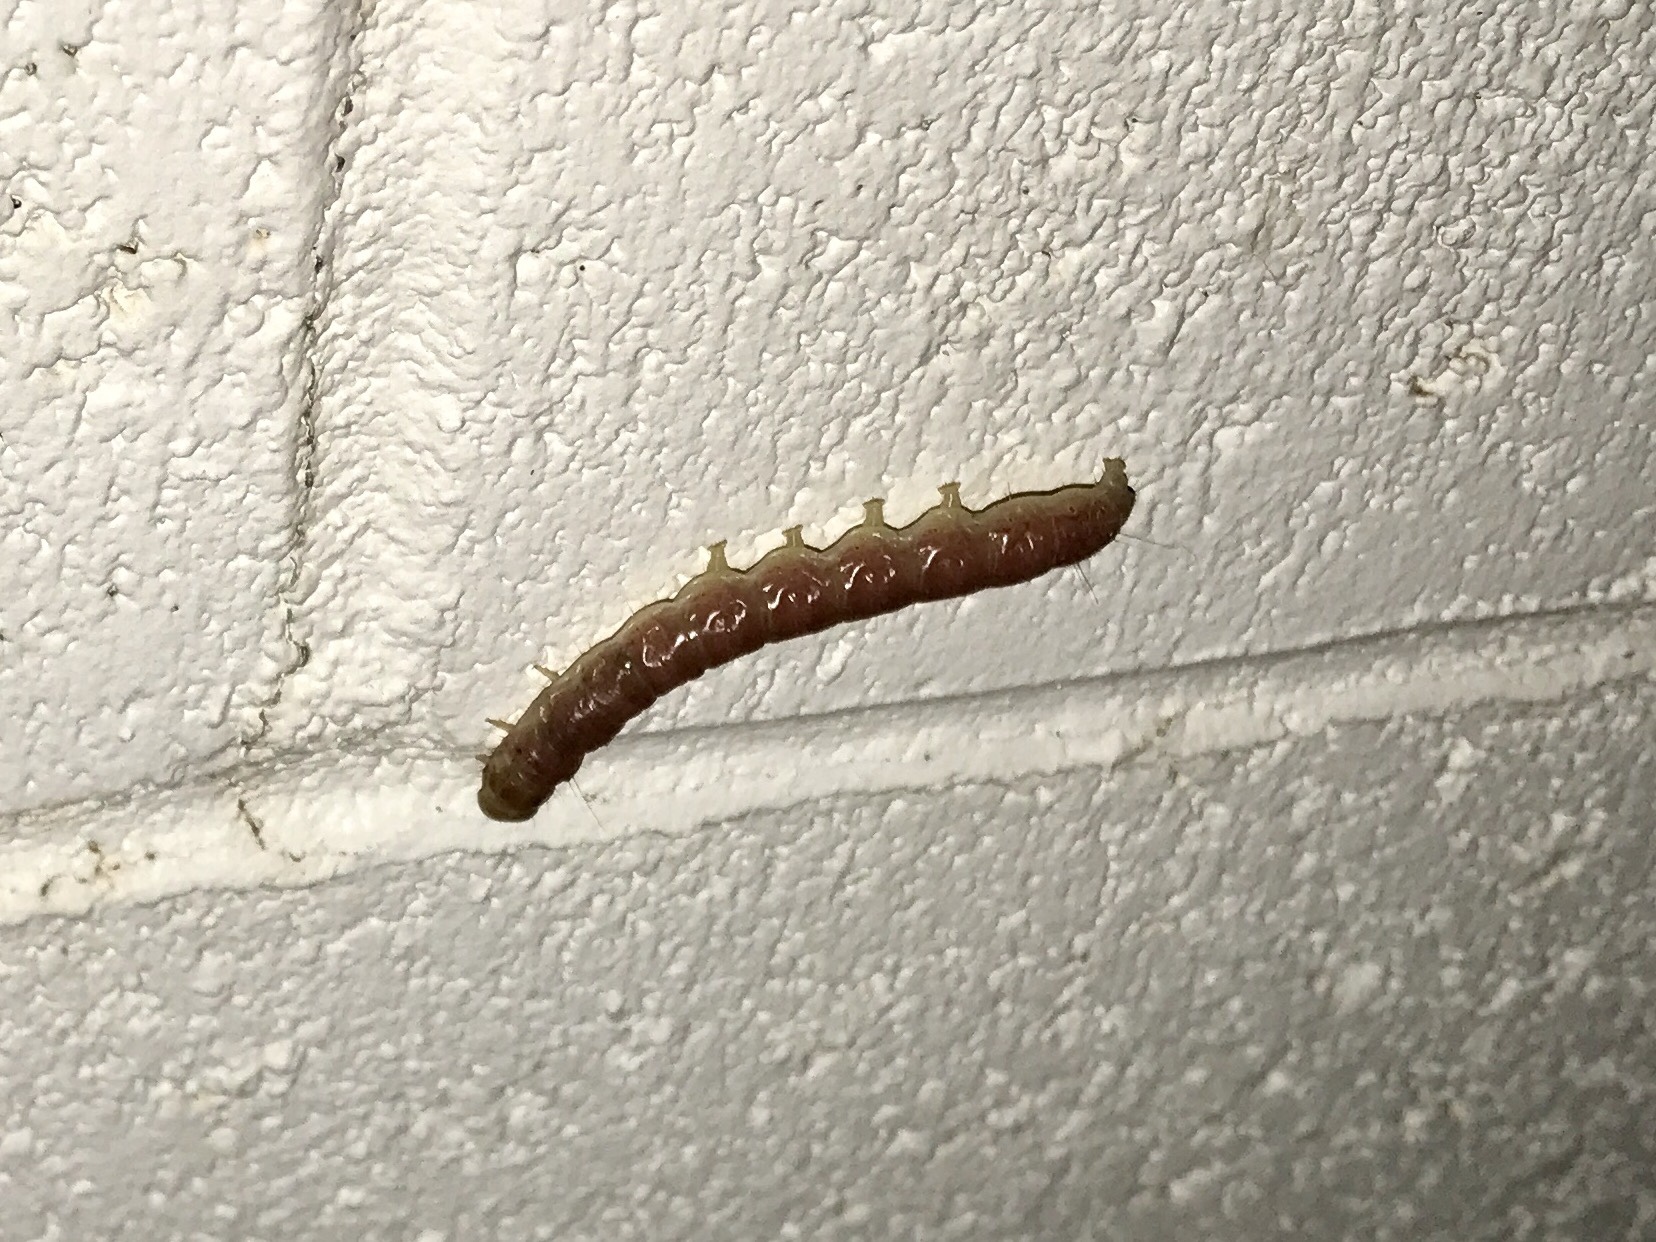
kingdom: Animalia
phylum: Arthropoda
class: Insecta
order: Lepidoptera
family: Erebidae
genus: Litoprosopus
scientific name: Litoprosopus coachella
